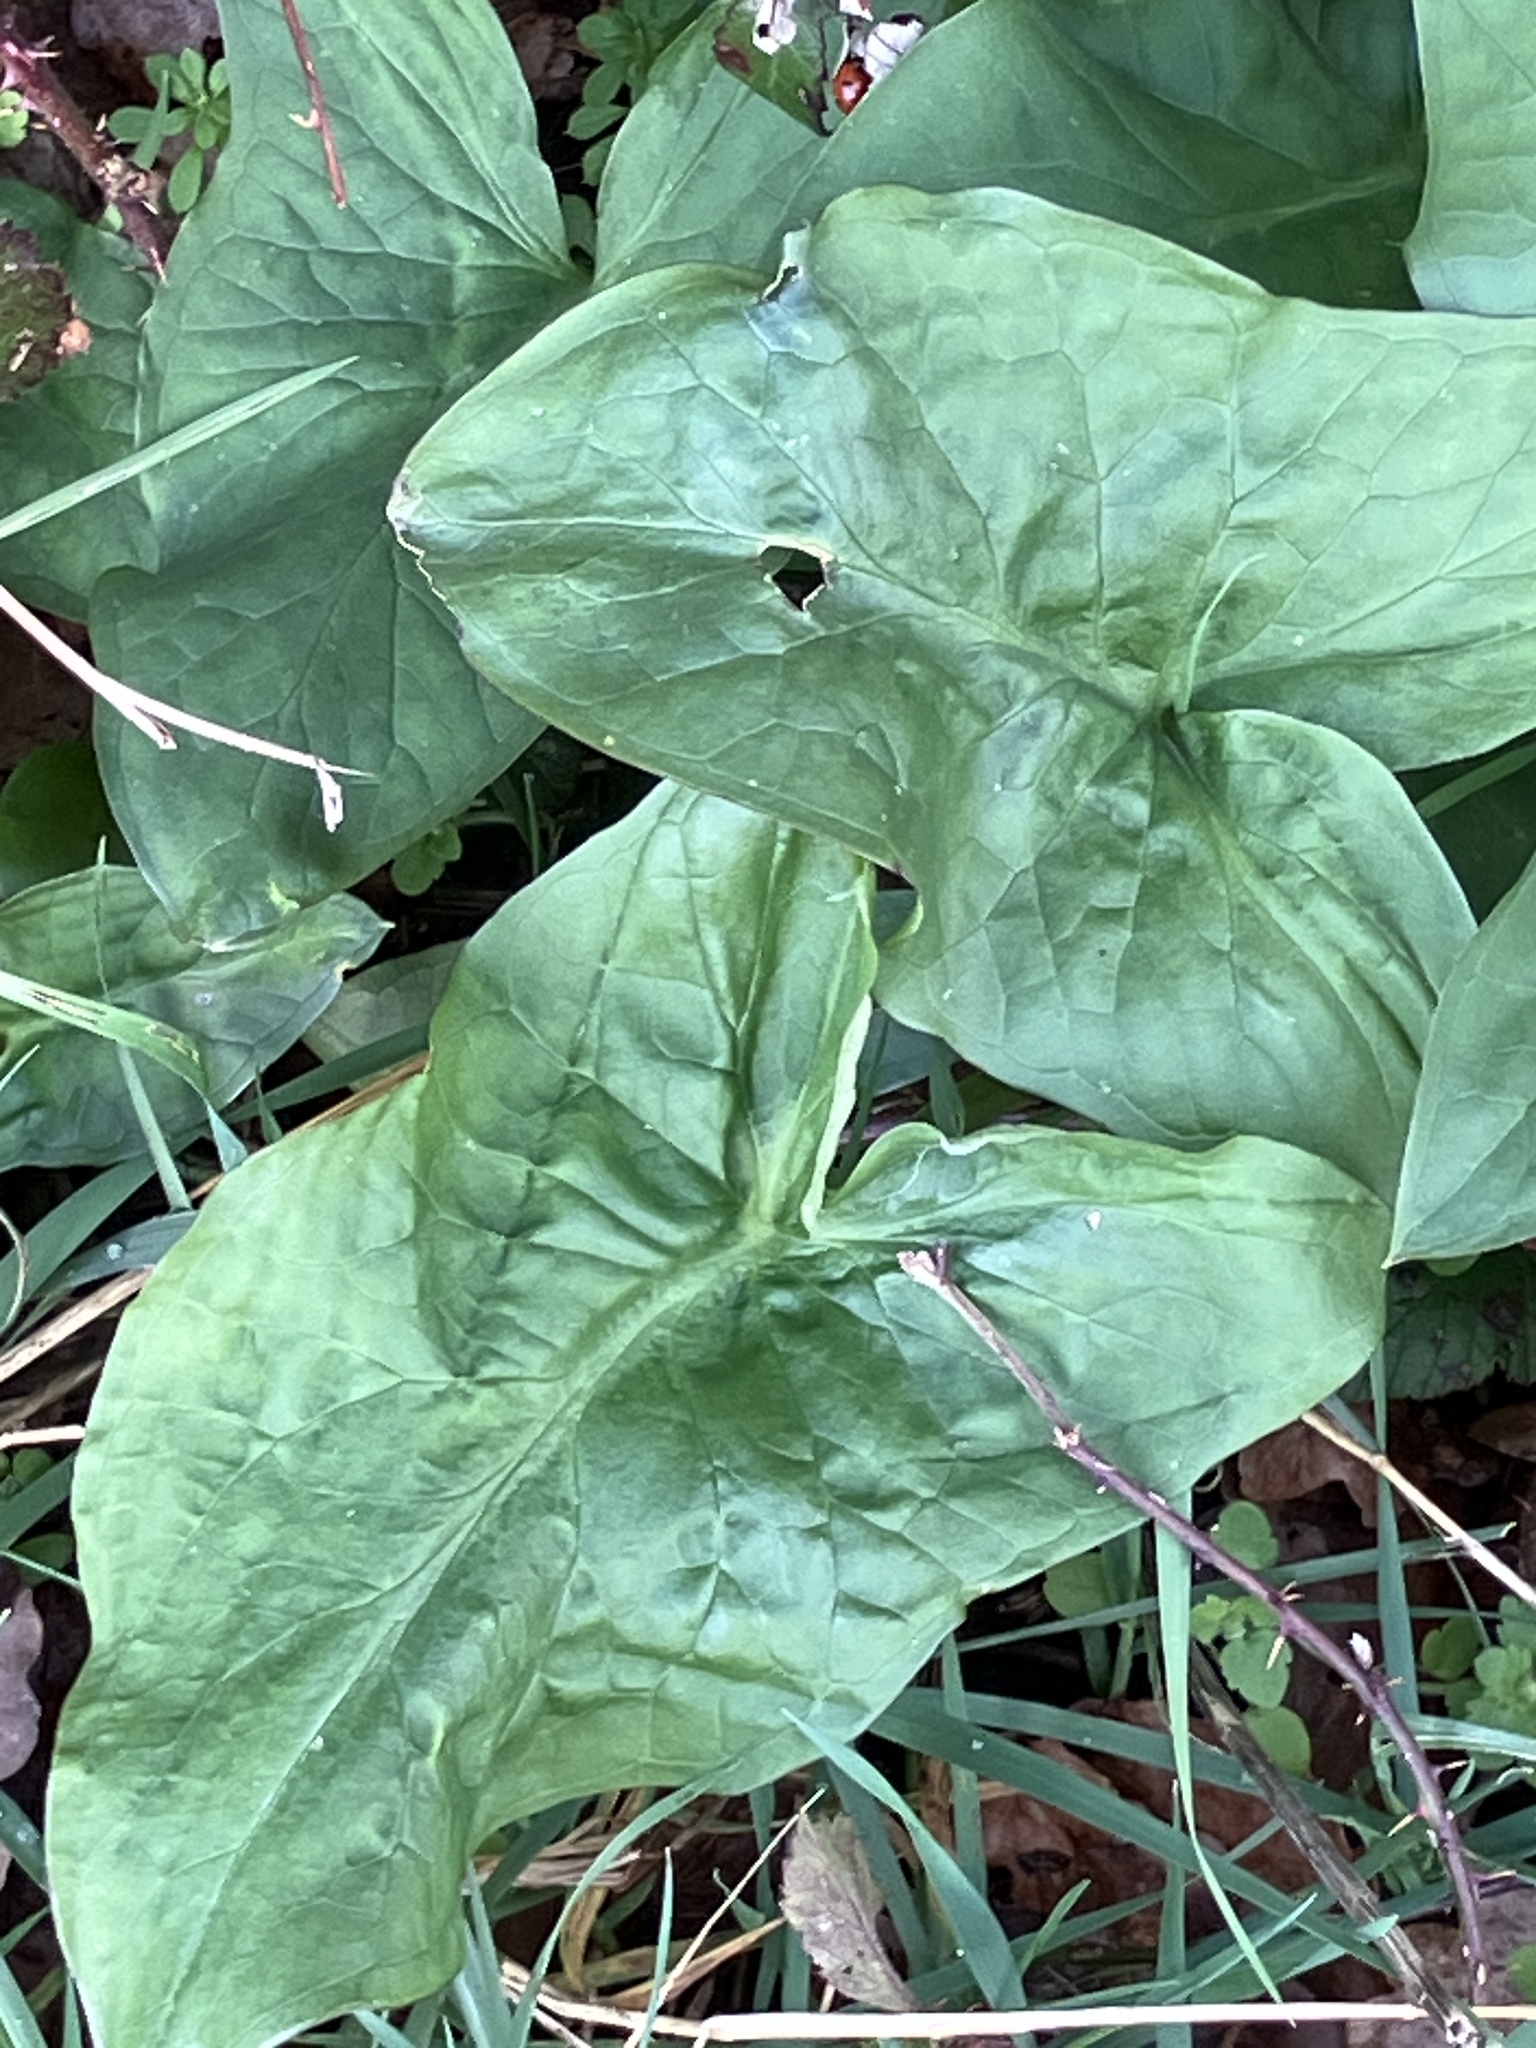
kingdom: Plantae
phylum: Tracheophyta
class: Liliopsida
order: Alismatales
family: Araceae
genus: Arum
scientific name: Arum maculatum
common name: Lords-and-ladies
